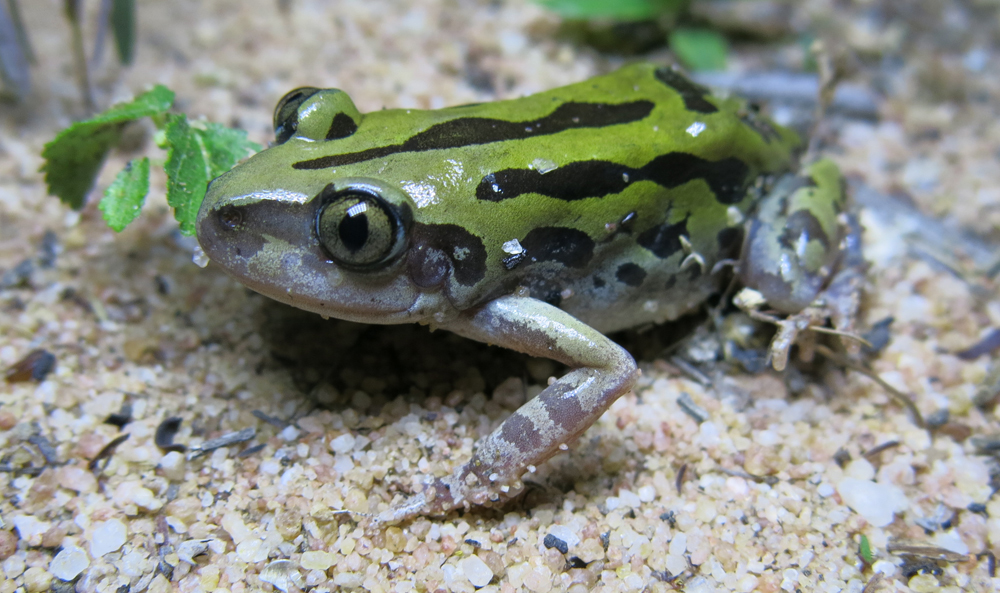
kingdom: Animalia
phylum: Chordata
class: Amphibia
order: Anura
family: Hyperoliidae
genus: Kassina
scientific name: Kassina senegalensis
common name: Senegal land frog
